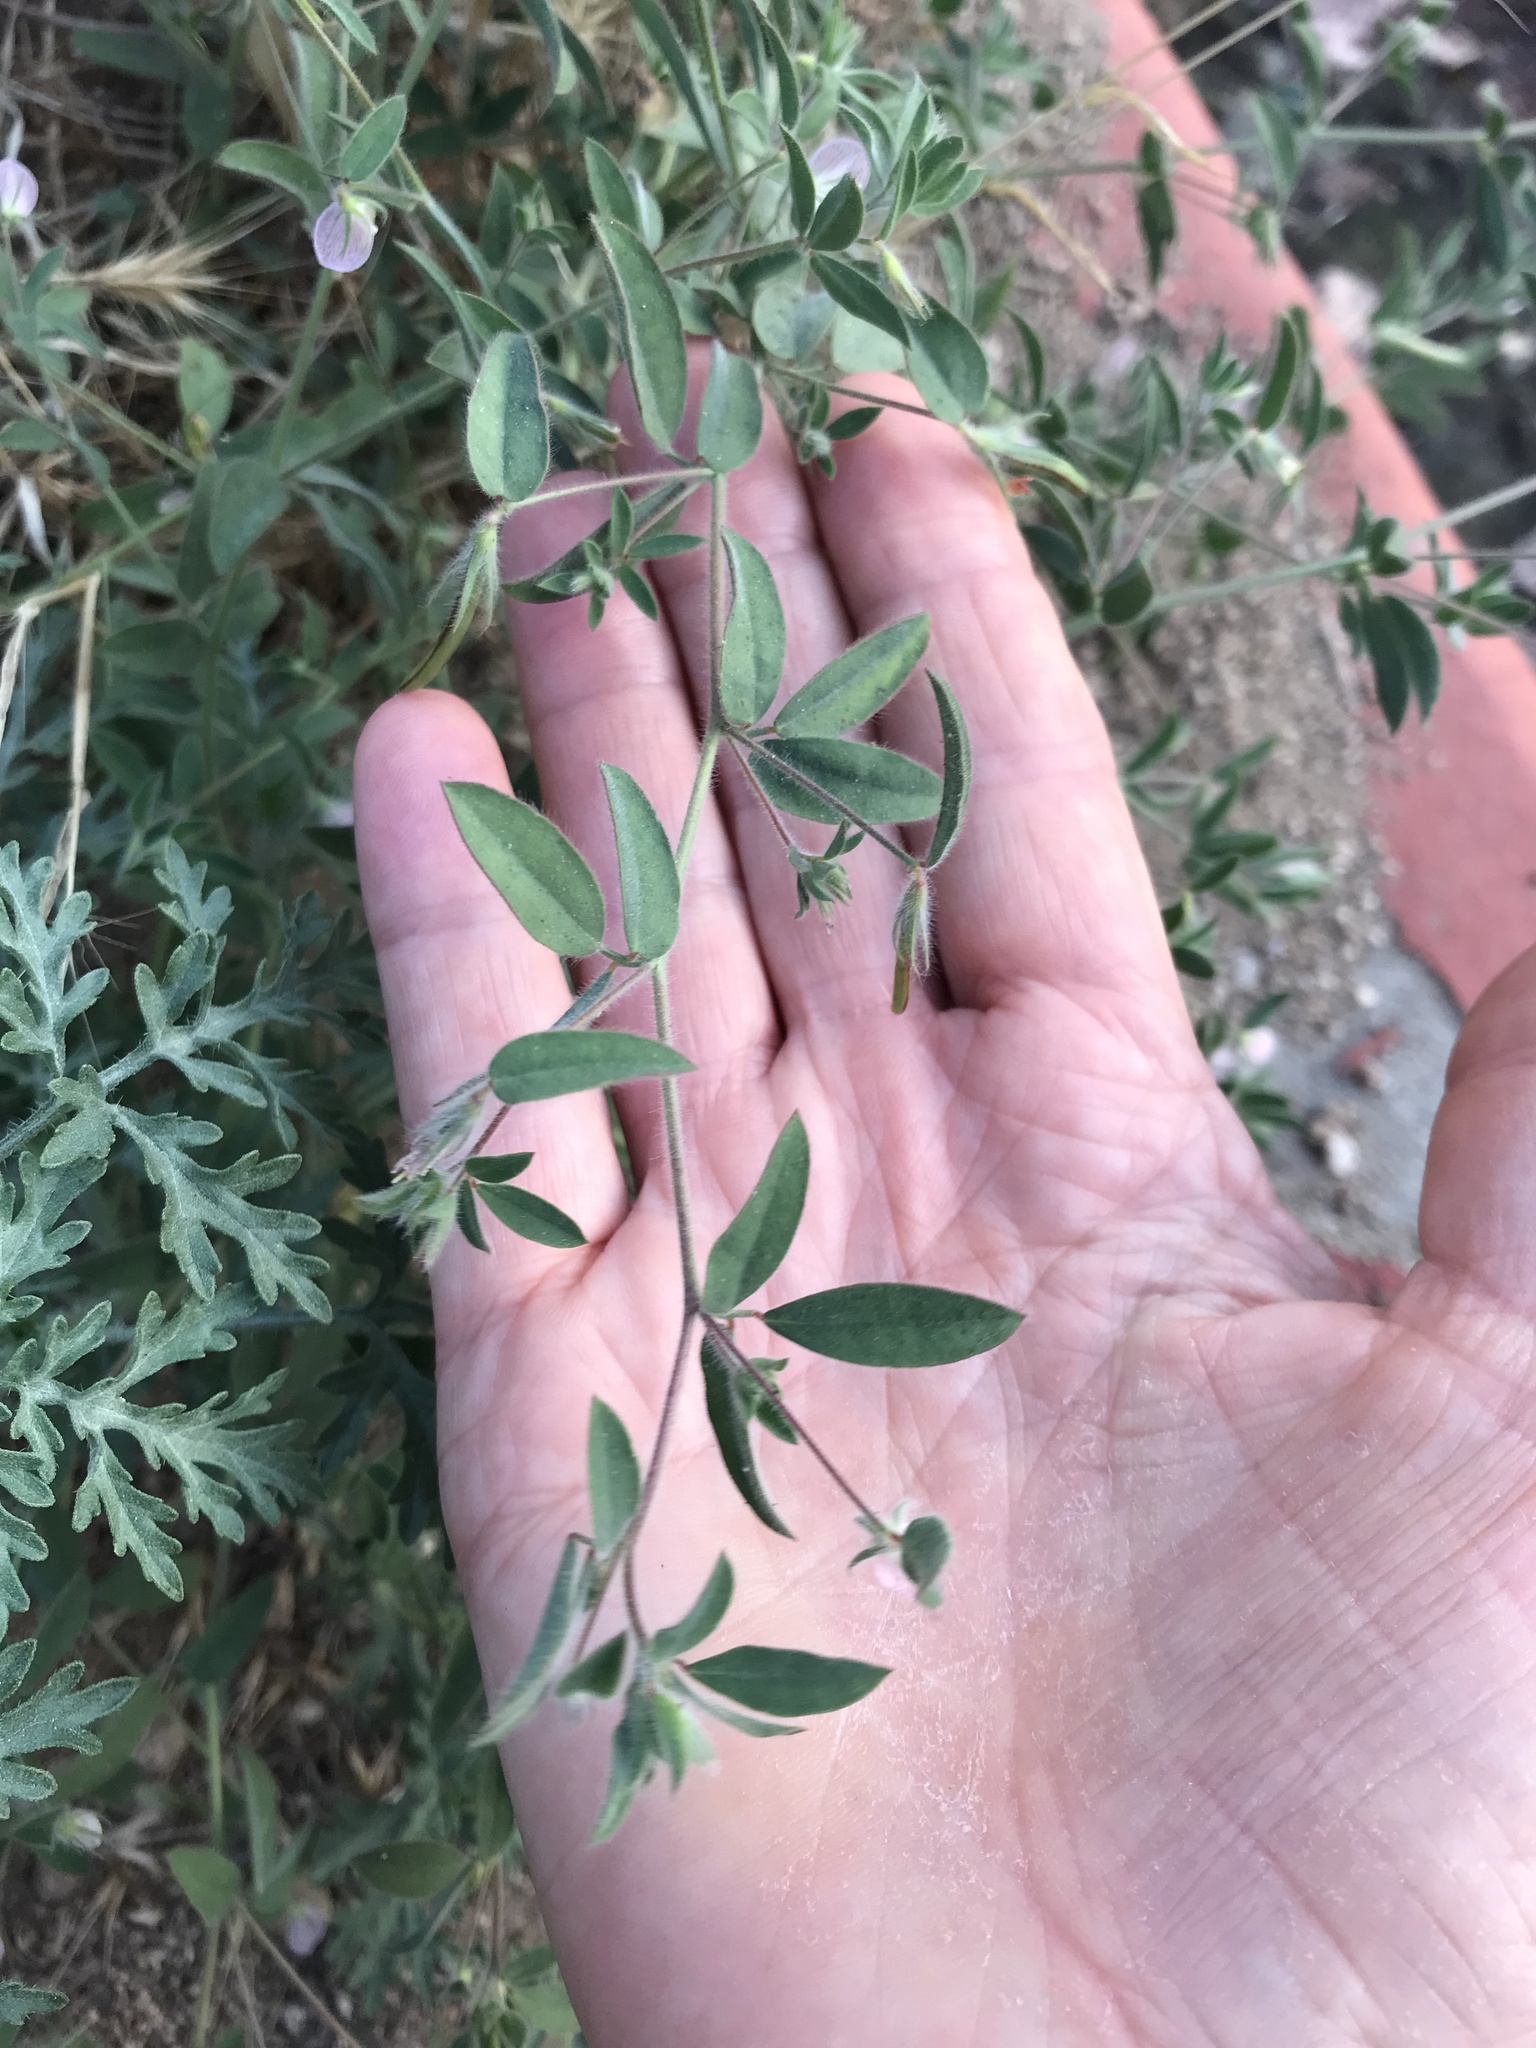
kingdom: Plantae
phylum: Tracheophyta
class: Magnoliopsida
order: Fabales
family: Fabaceae
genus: Acmispon
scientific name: Acmispon americanus
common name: American bird's-foot trefoil
